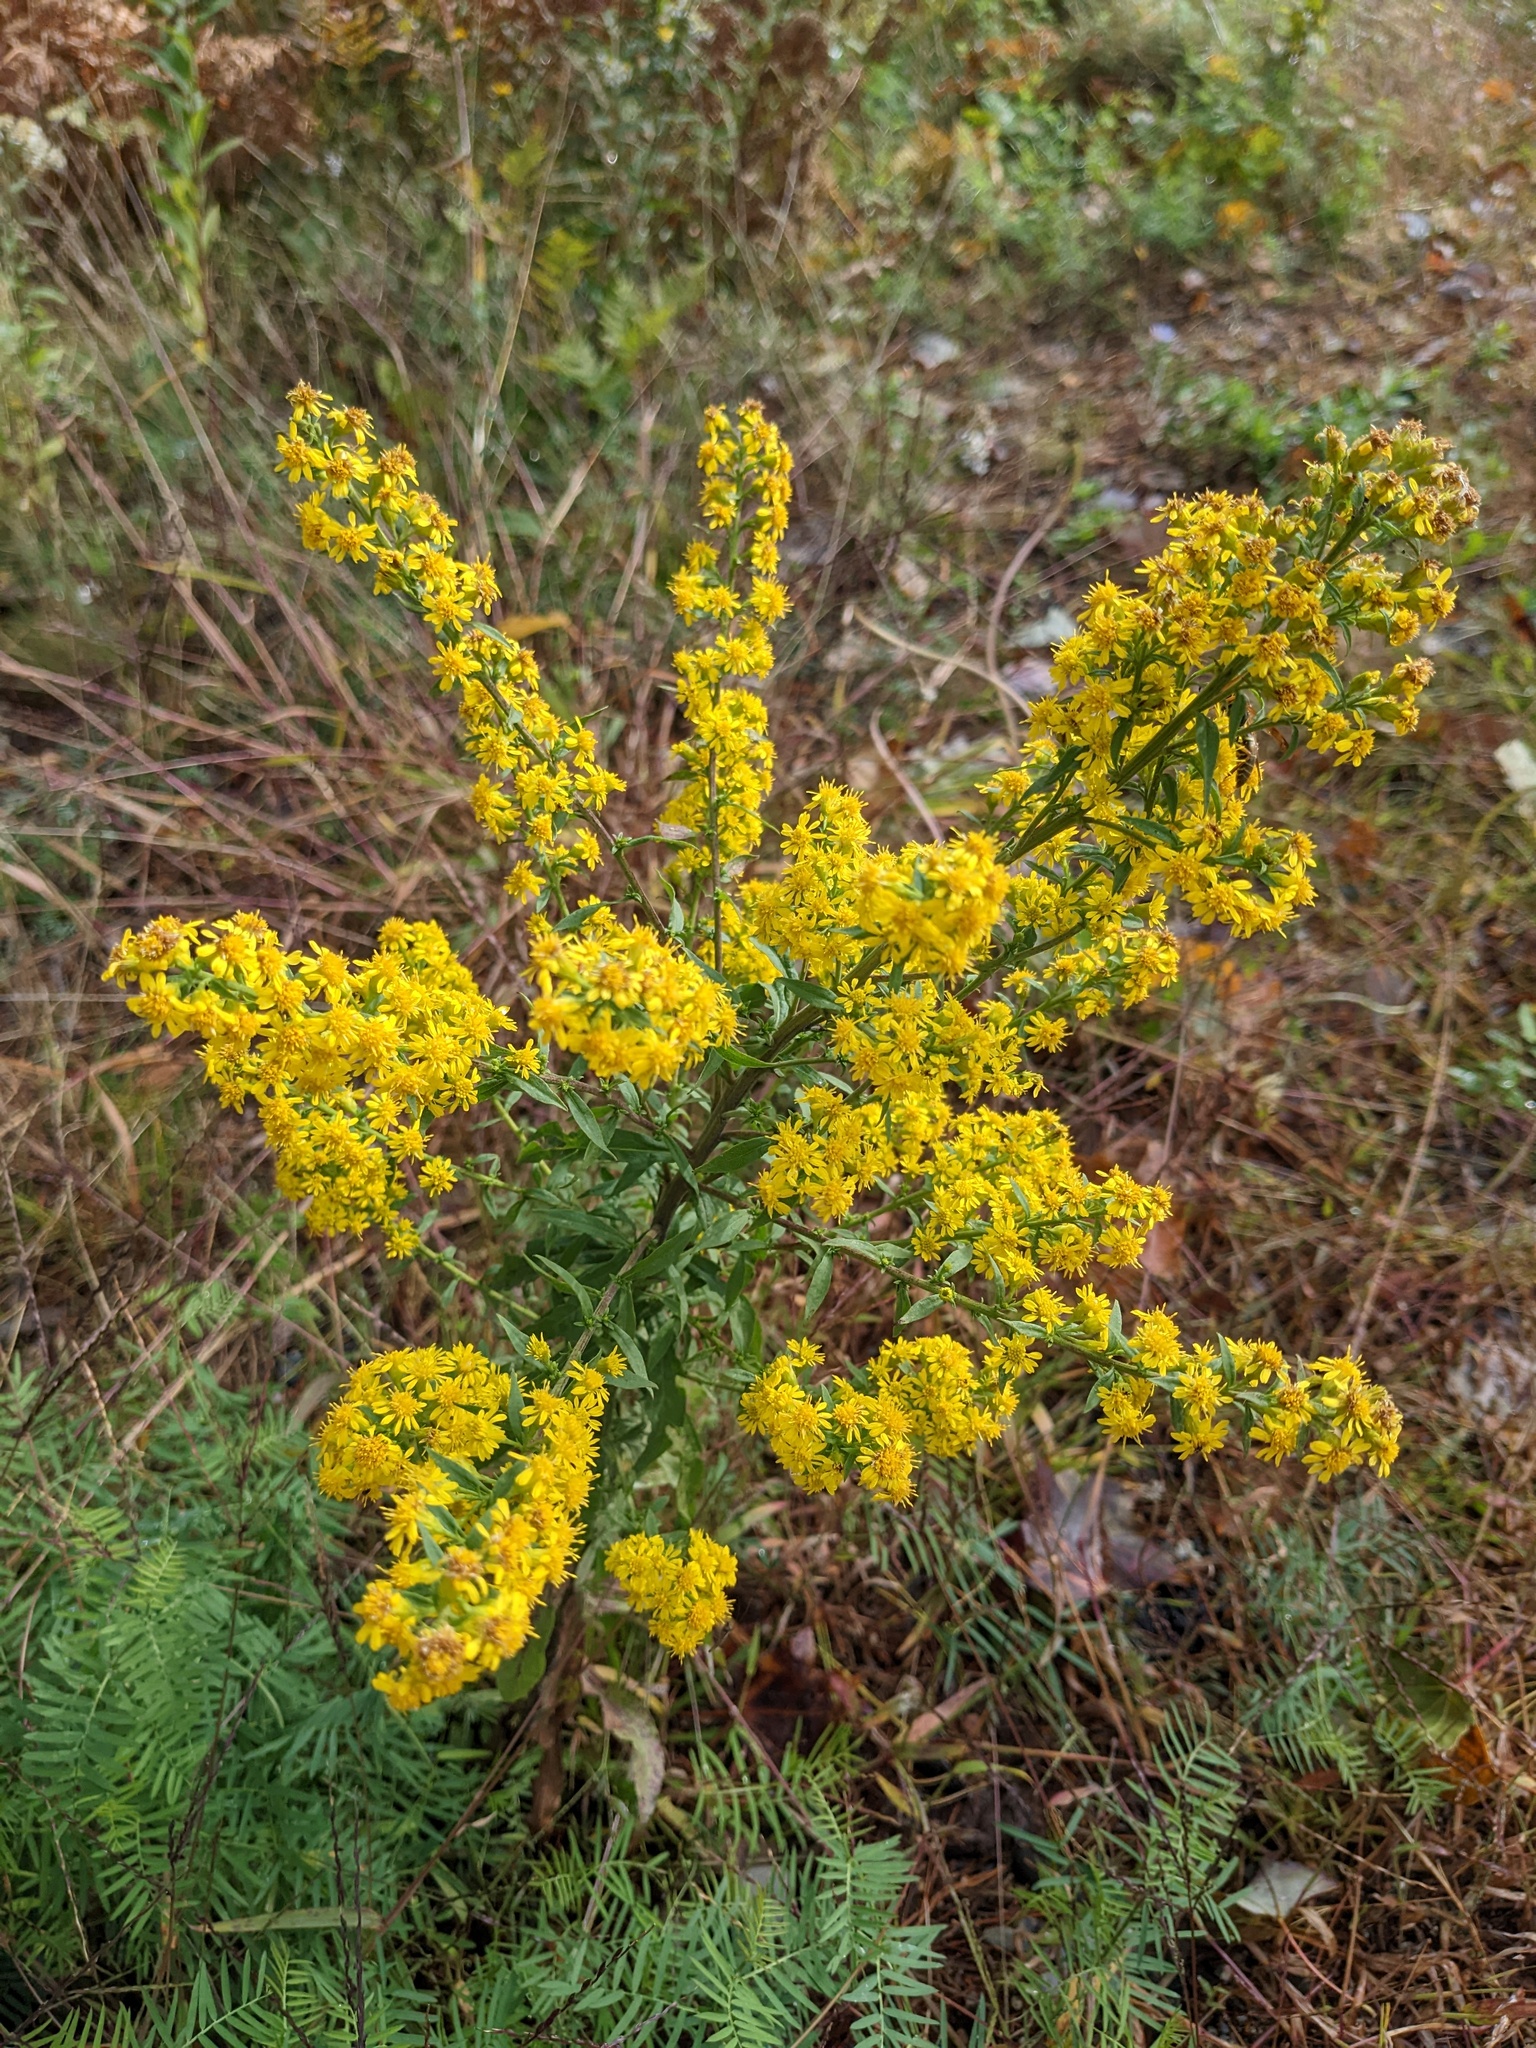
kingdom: Plantae
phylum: Tracheophyta
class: Magnoliopsida
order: Asterales
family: Asteraceae
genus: Solidago
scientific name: Solidago puberula
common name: Downy goldenrod
